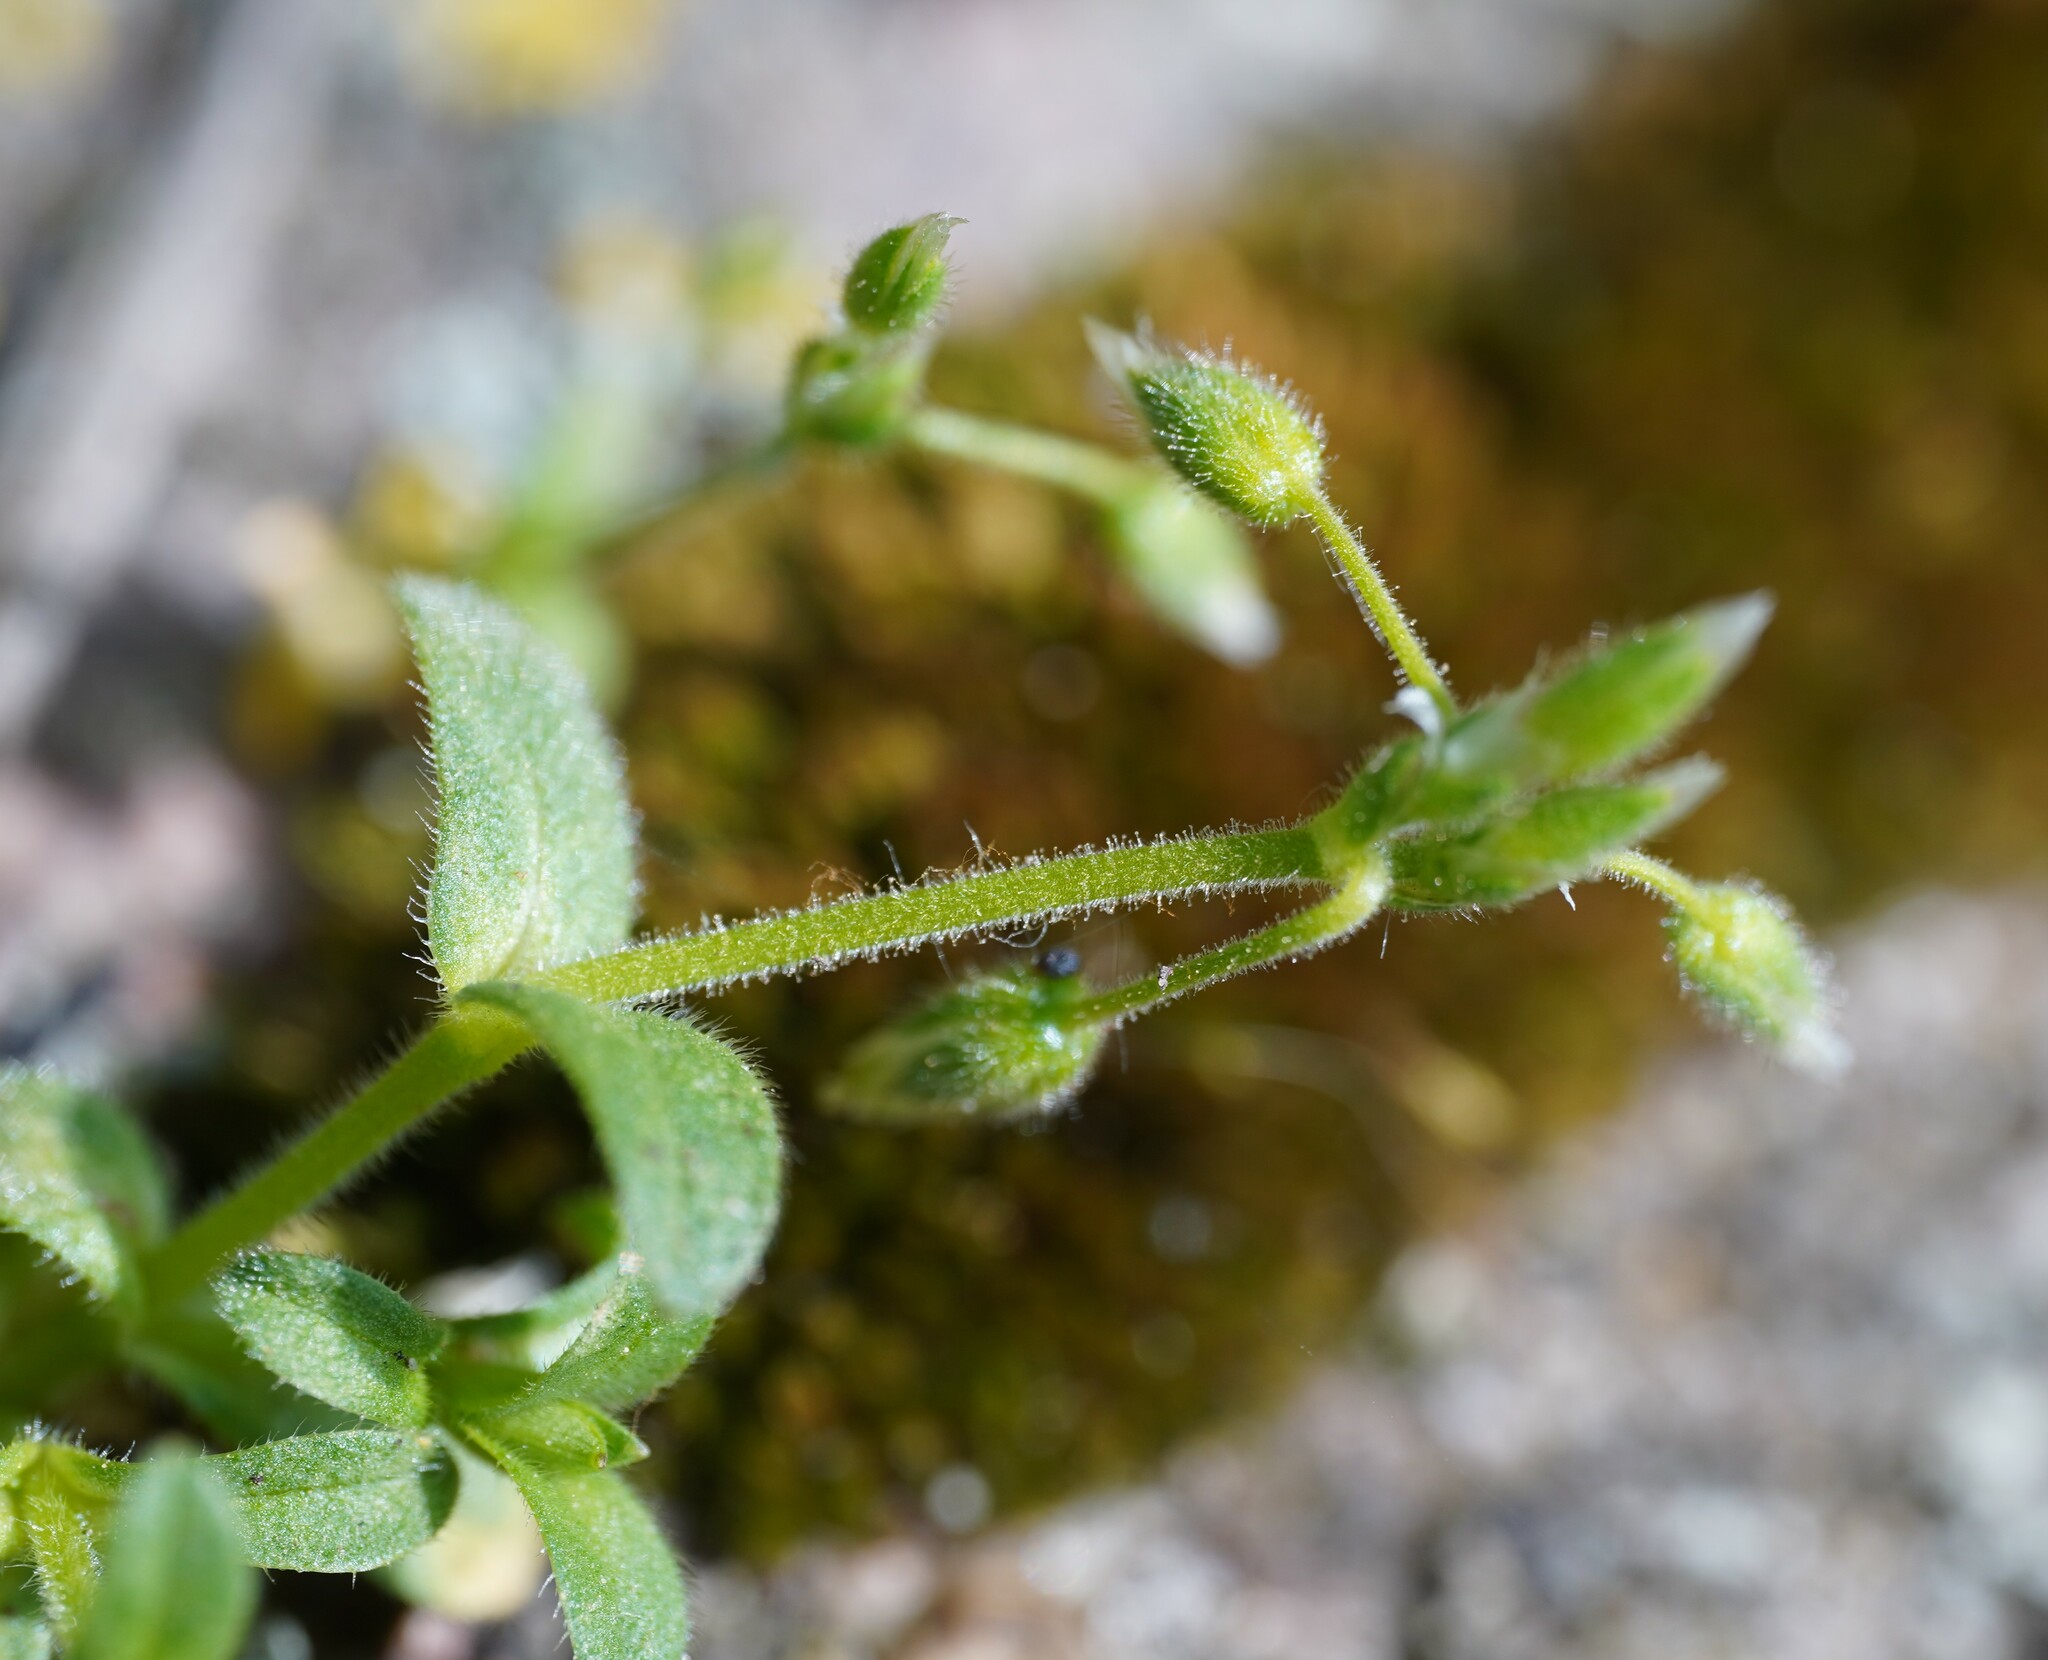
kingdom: Plantae
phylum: Tracheophyta
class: Magnoliopsida
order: Caryophyllales
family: Caryophyllaceae
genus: Cerastium
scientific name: Cerastium semidecandrum
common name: Little mouse-ear
